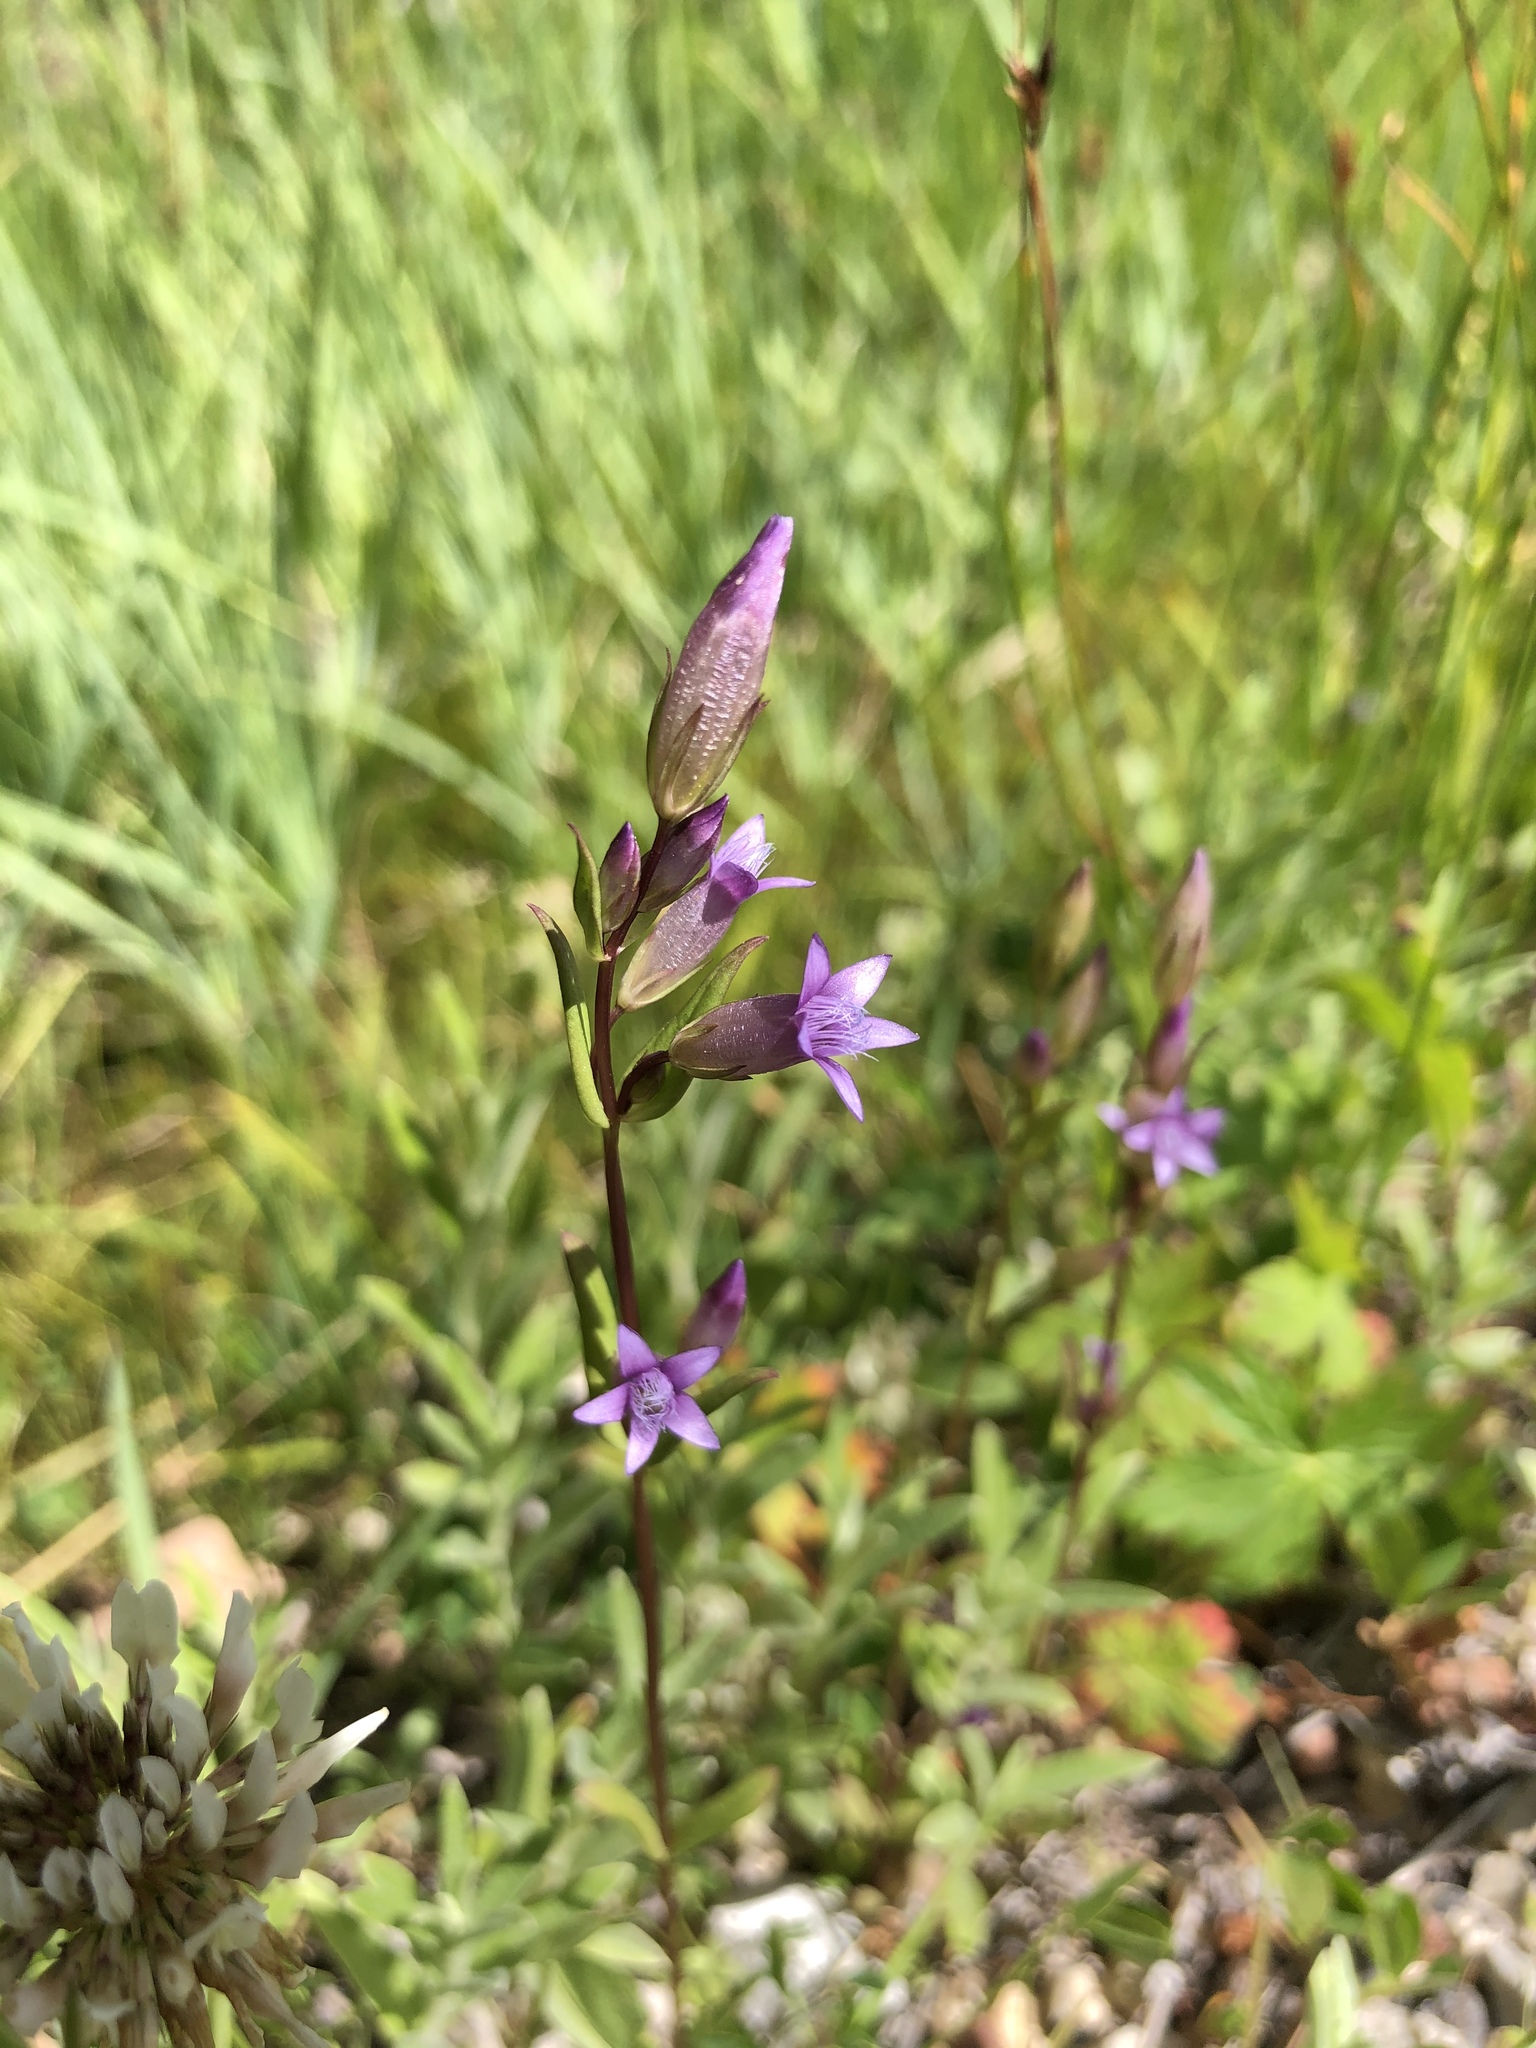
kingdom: Plantae
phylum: Tracheophyta
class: Magnoliopsida
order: Gentianales
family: Gentianaceae
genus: Gentianella
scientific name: Gentianella amarella
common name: Autumn gentian
